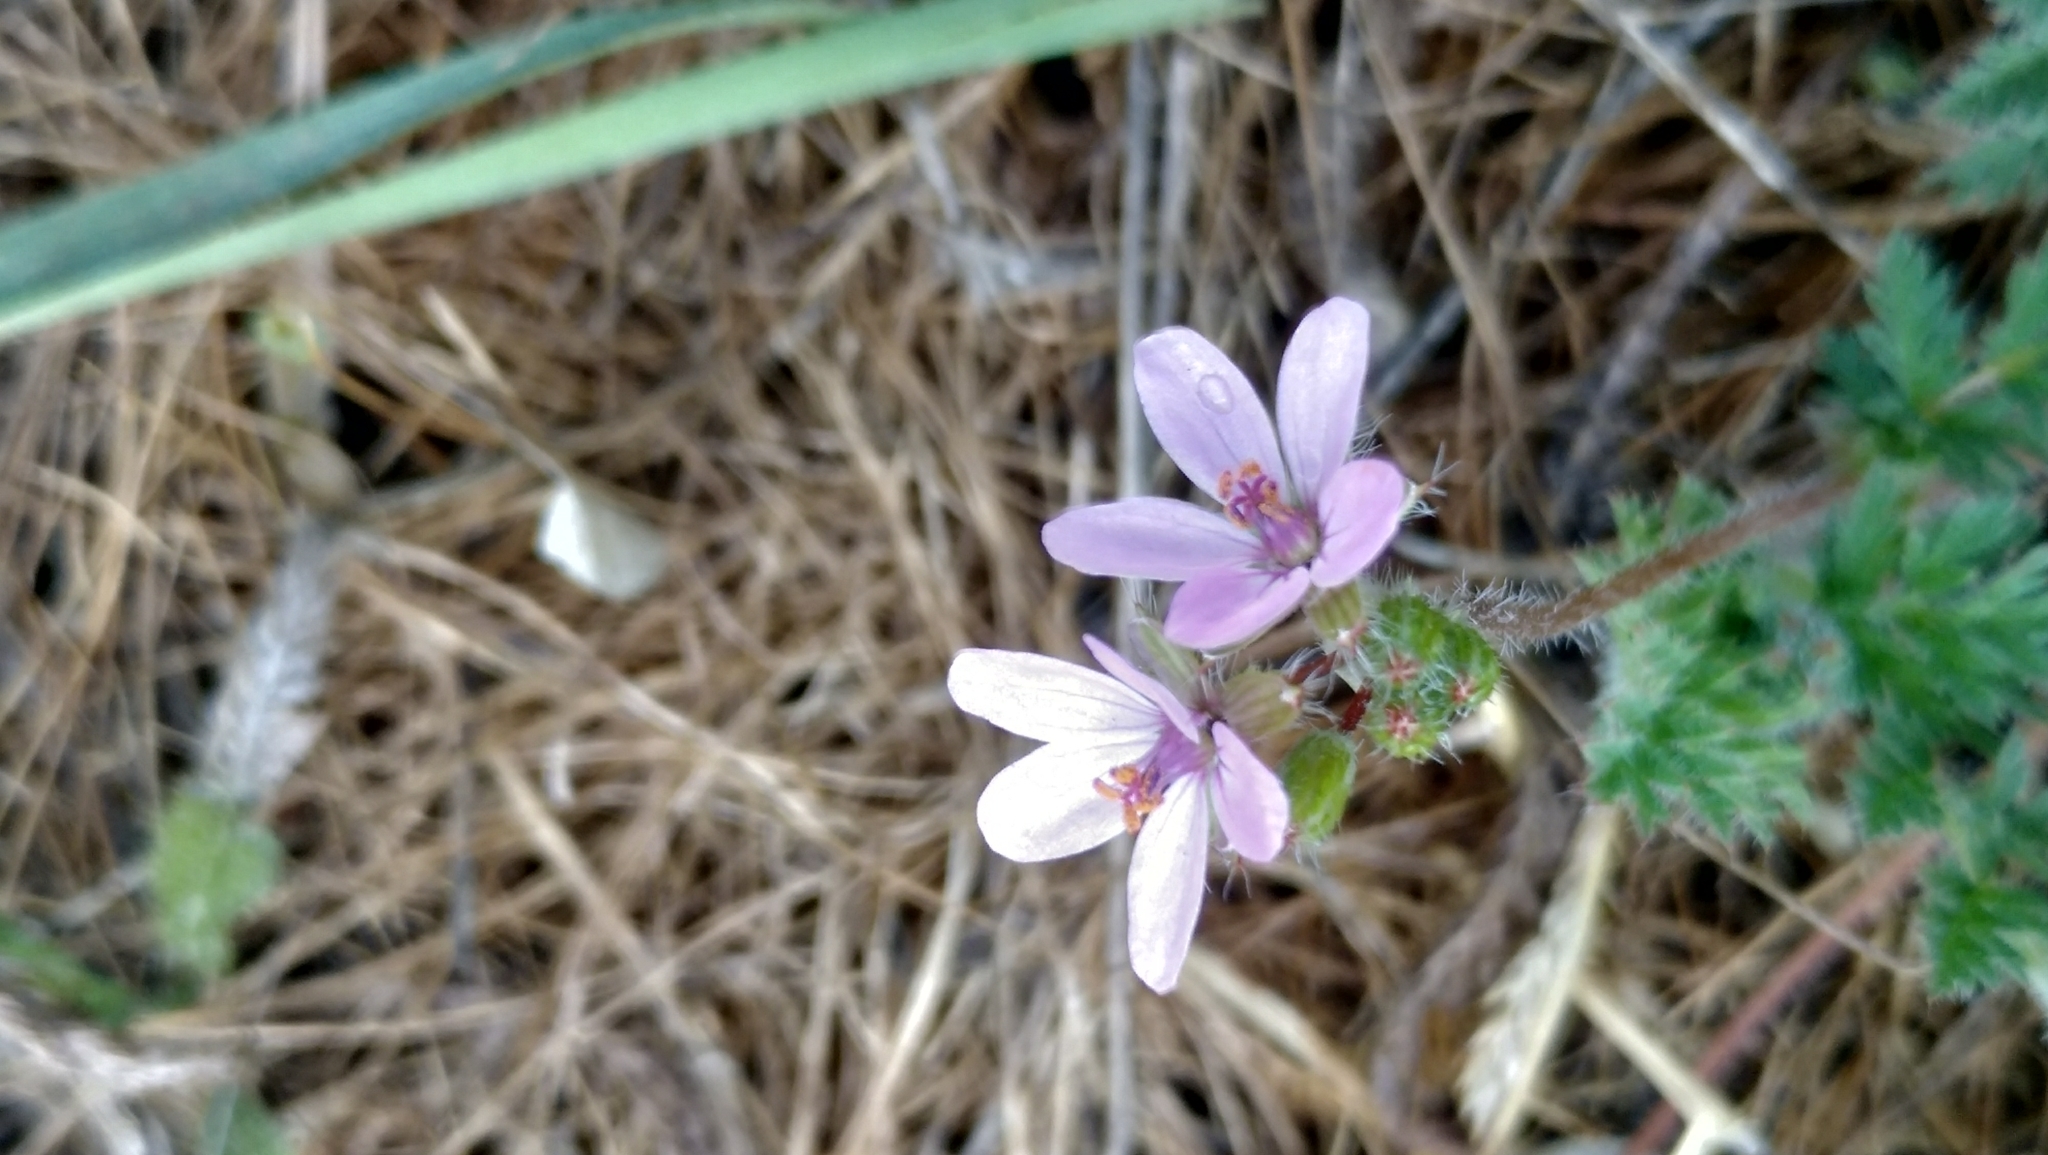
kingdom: Plantae
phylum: Tracheophyta
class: Magnoliopsida
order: Geraniales
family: Geraniaceae
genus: Erodium
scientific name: Erodium cicutarium
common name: Common stork's-bill
